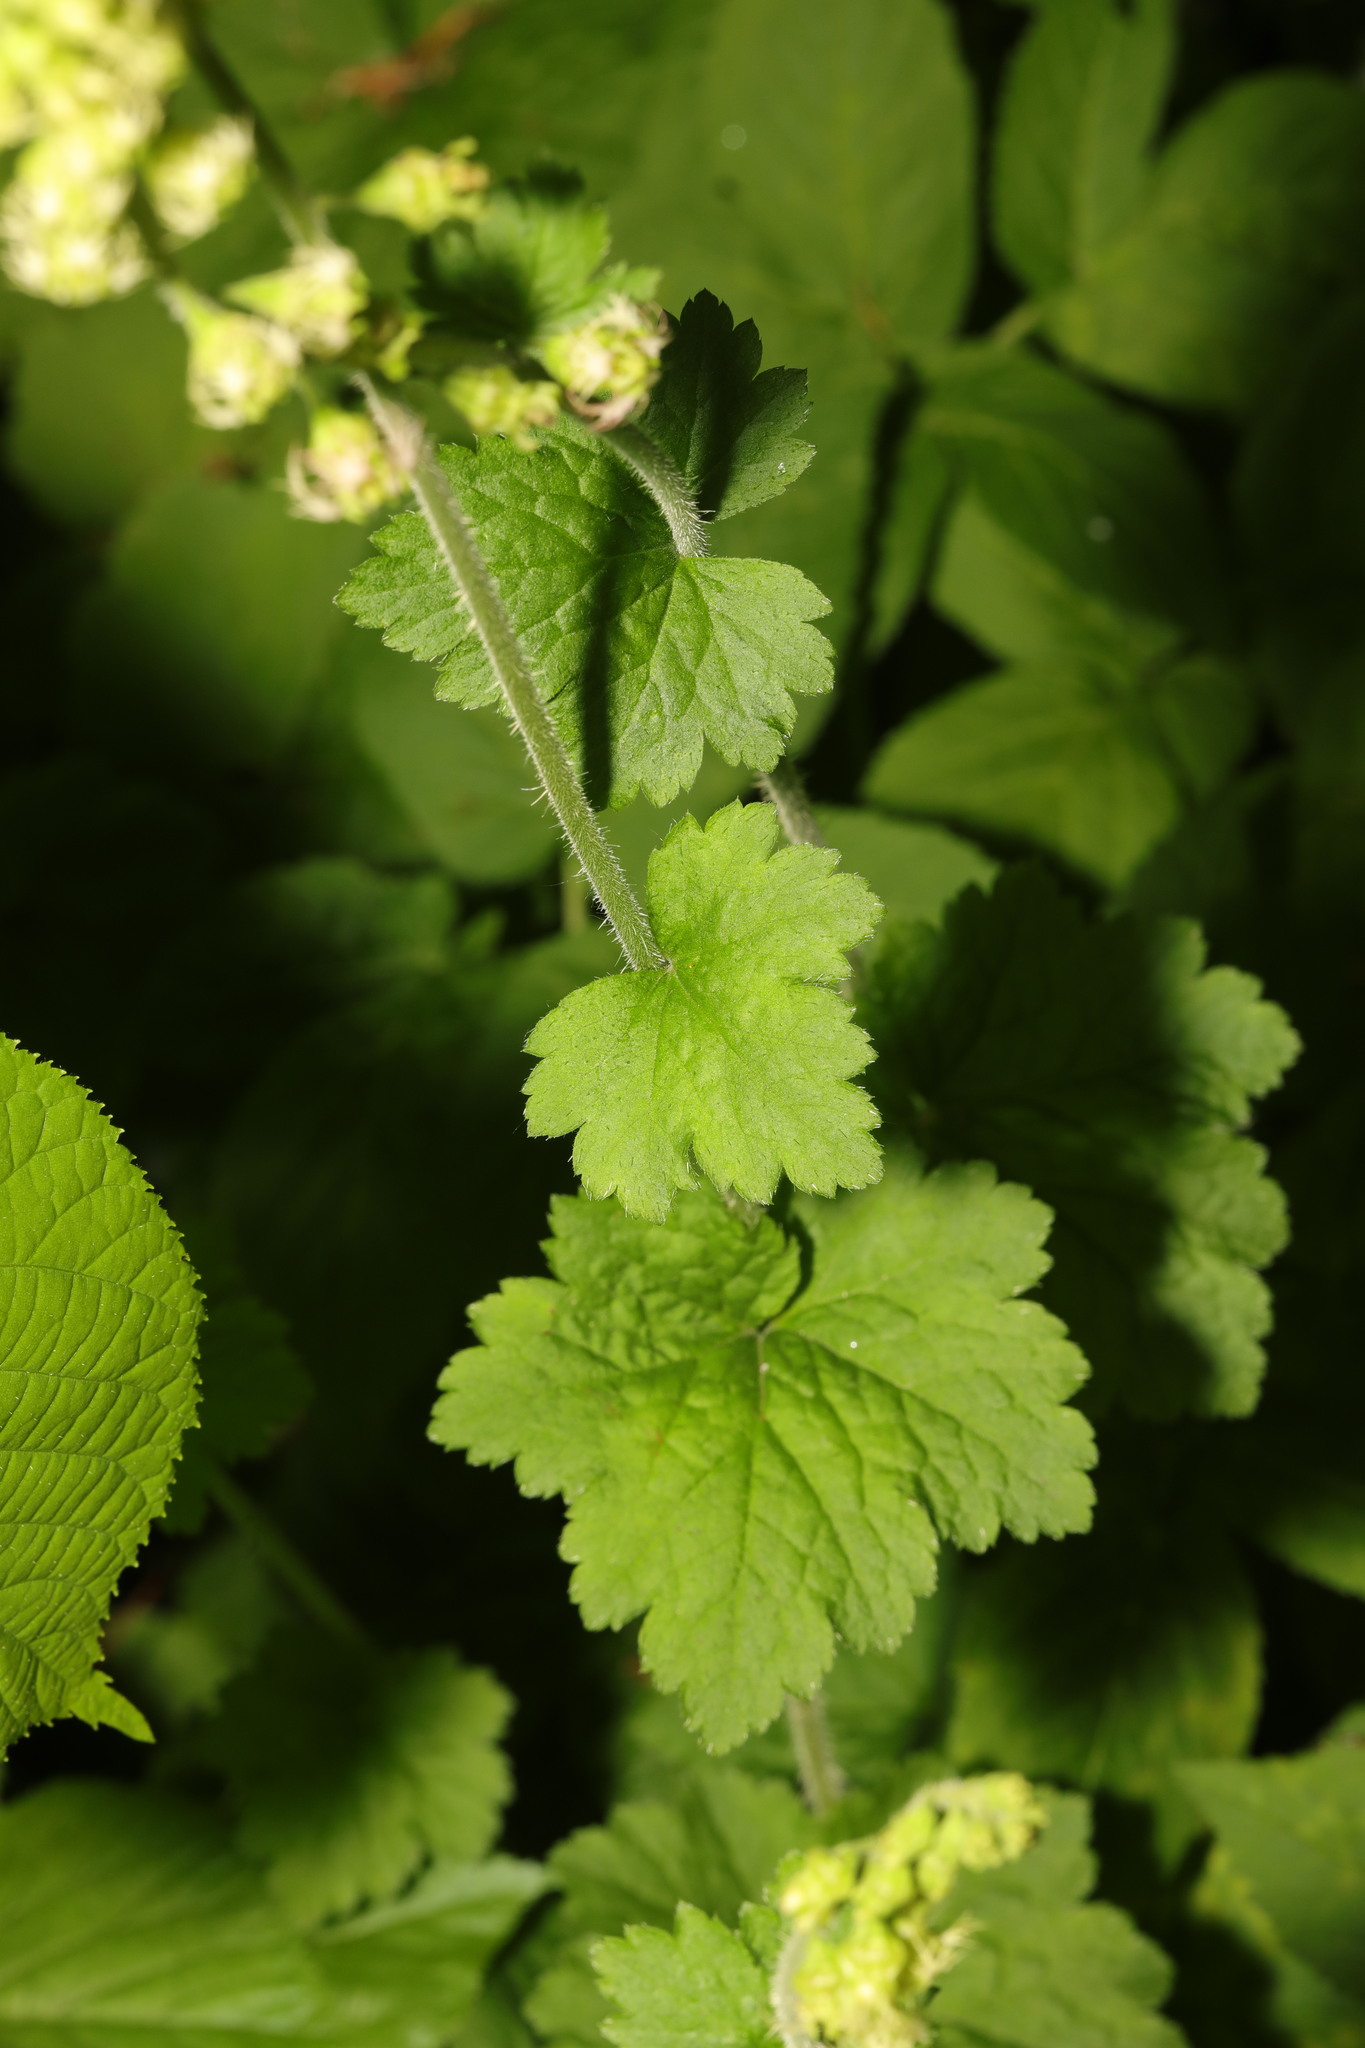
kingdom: Plantae
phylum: Tracheophyta
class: Magnoliopsida
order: Saxifragales
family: Saxifragaceae
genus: Tellima
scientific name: Tellima grandiflora
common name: Fringecups
